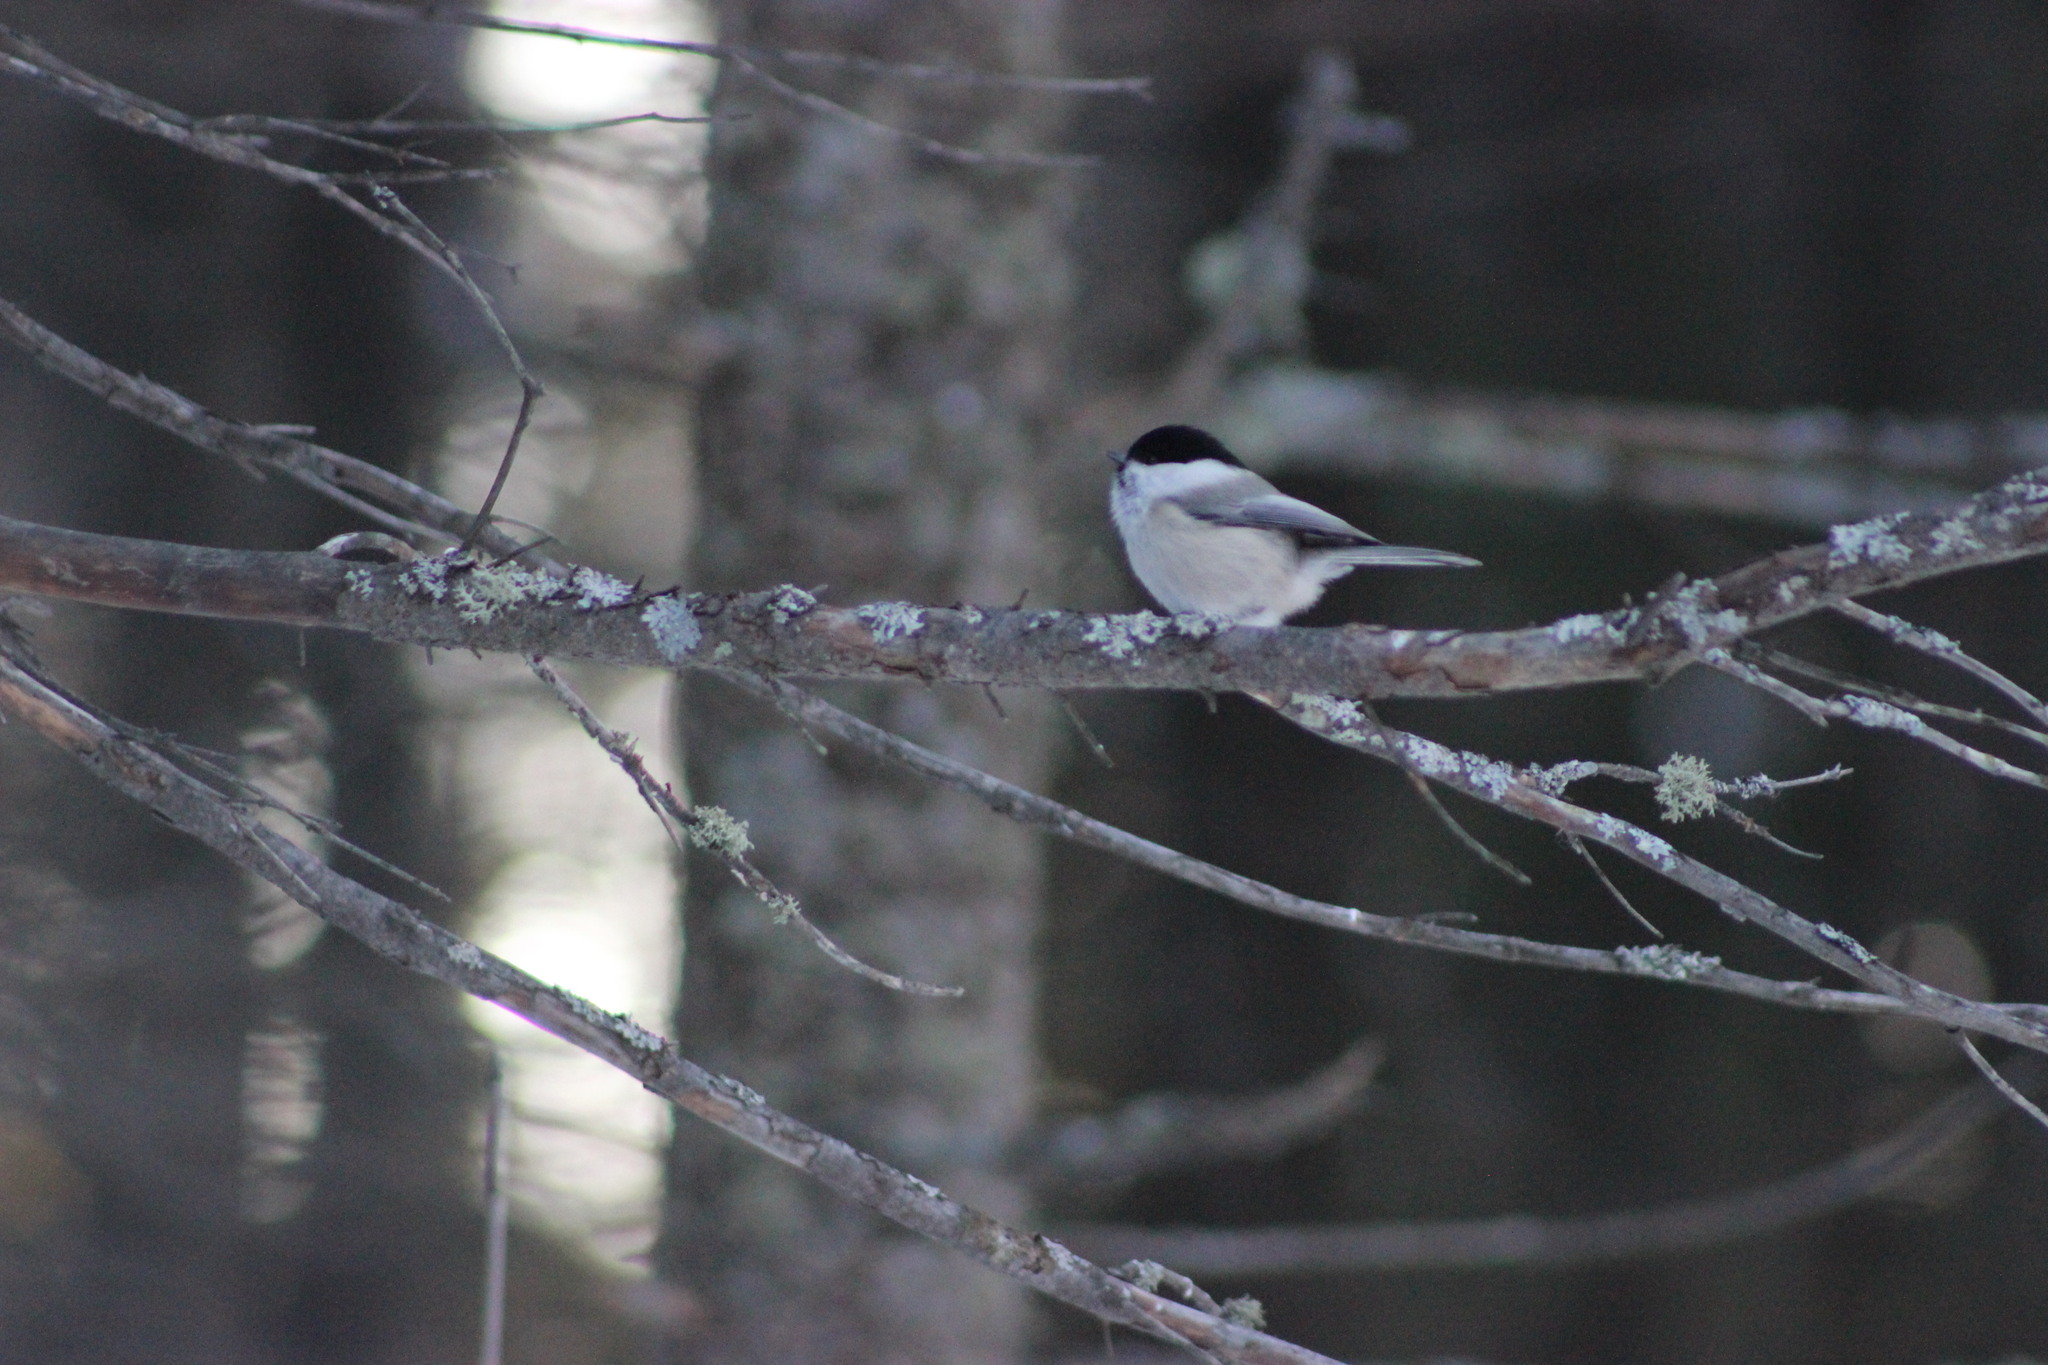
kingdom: Animalia
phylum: Chordata
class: Aves
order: Passeriformes
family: Paridae
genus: Poecile
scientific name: Poecile montanus
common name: Willow tit
